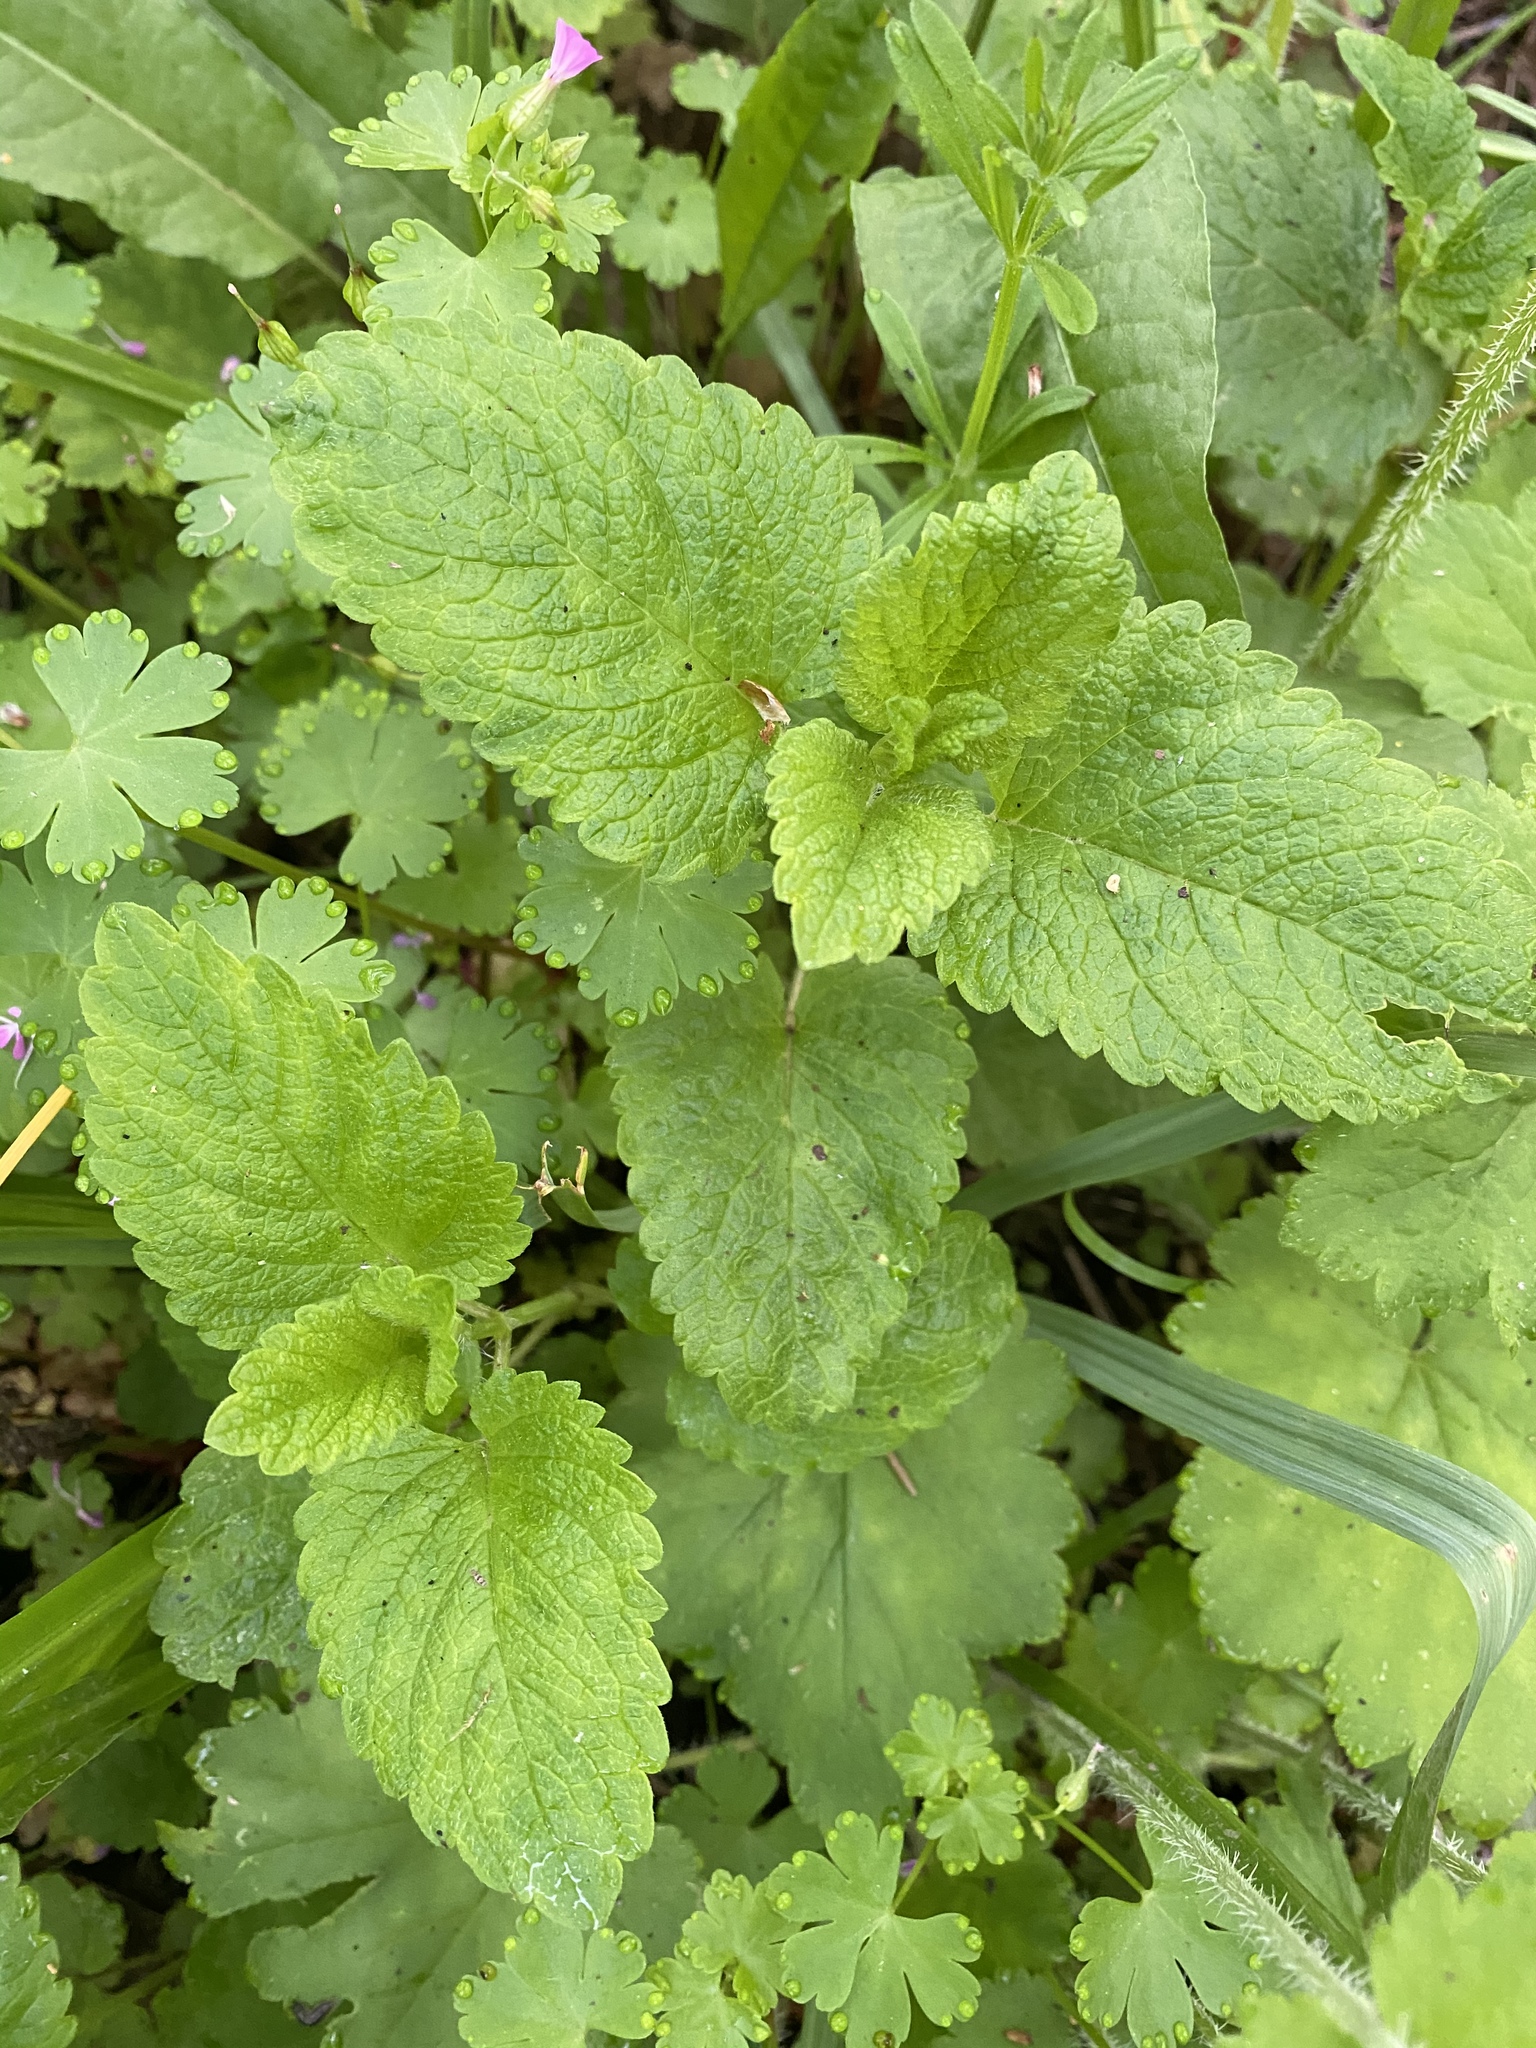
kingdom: Plantae
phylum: Tracheophyta
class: Magnoliopsida
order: Lamiales
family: Lamiaceae
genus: Melissa
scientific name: Melissa officinalis
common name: Balm
